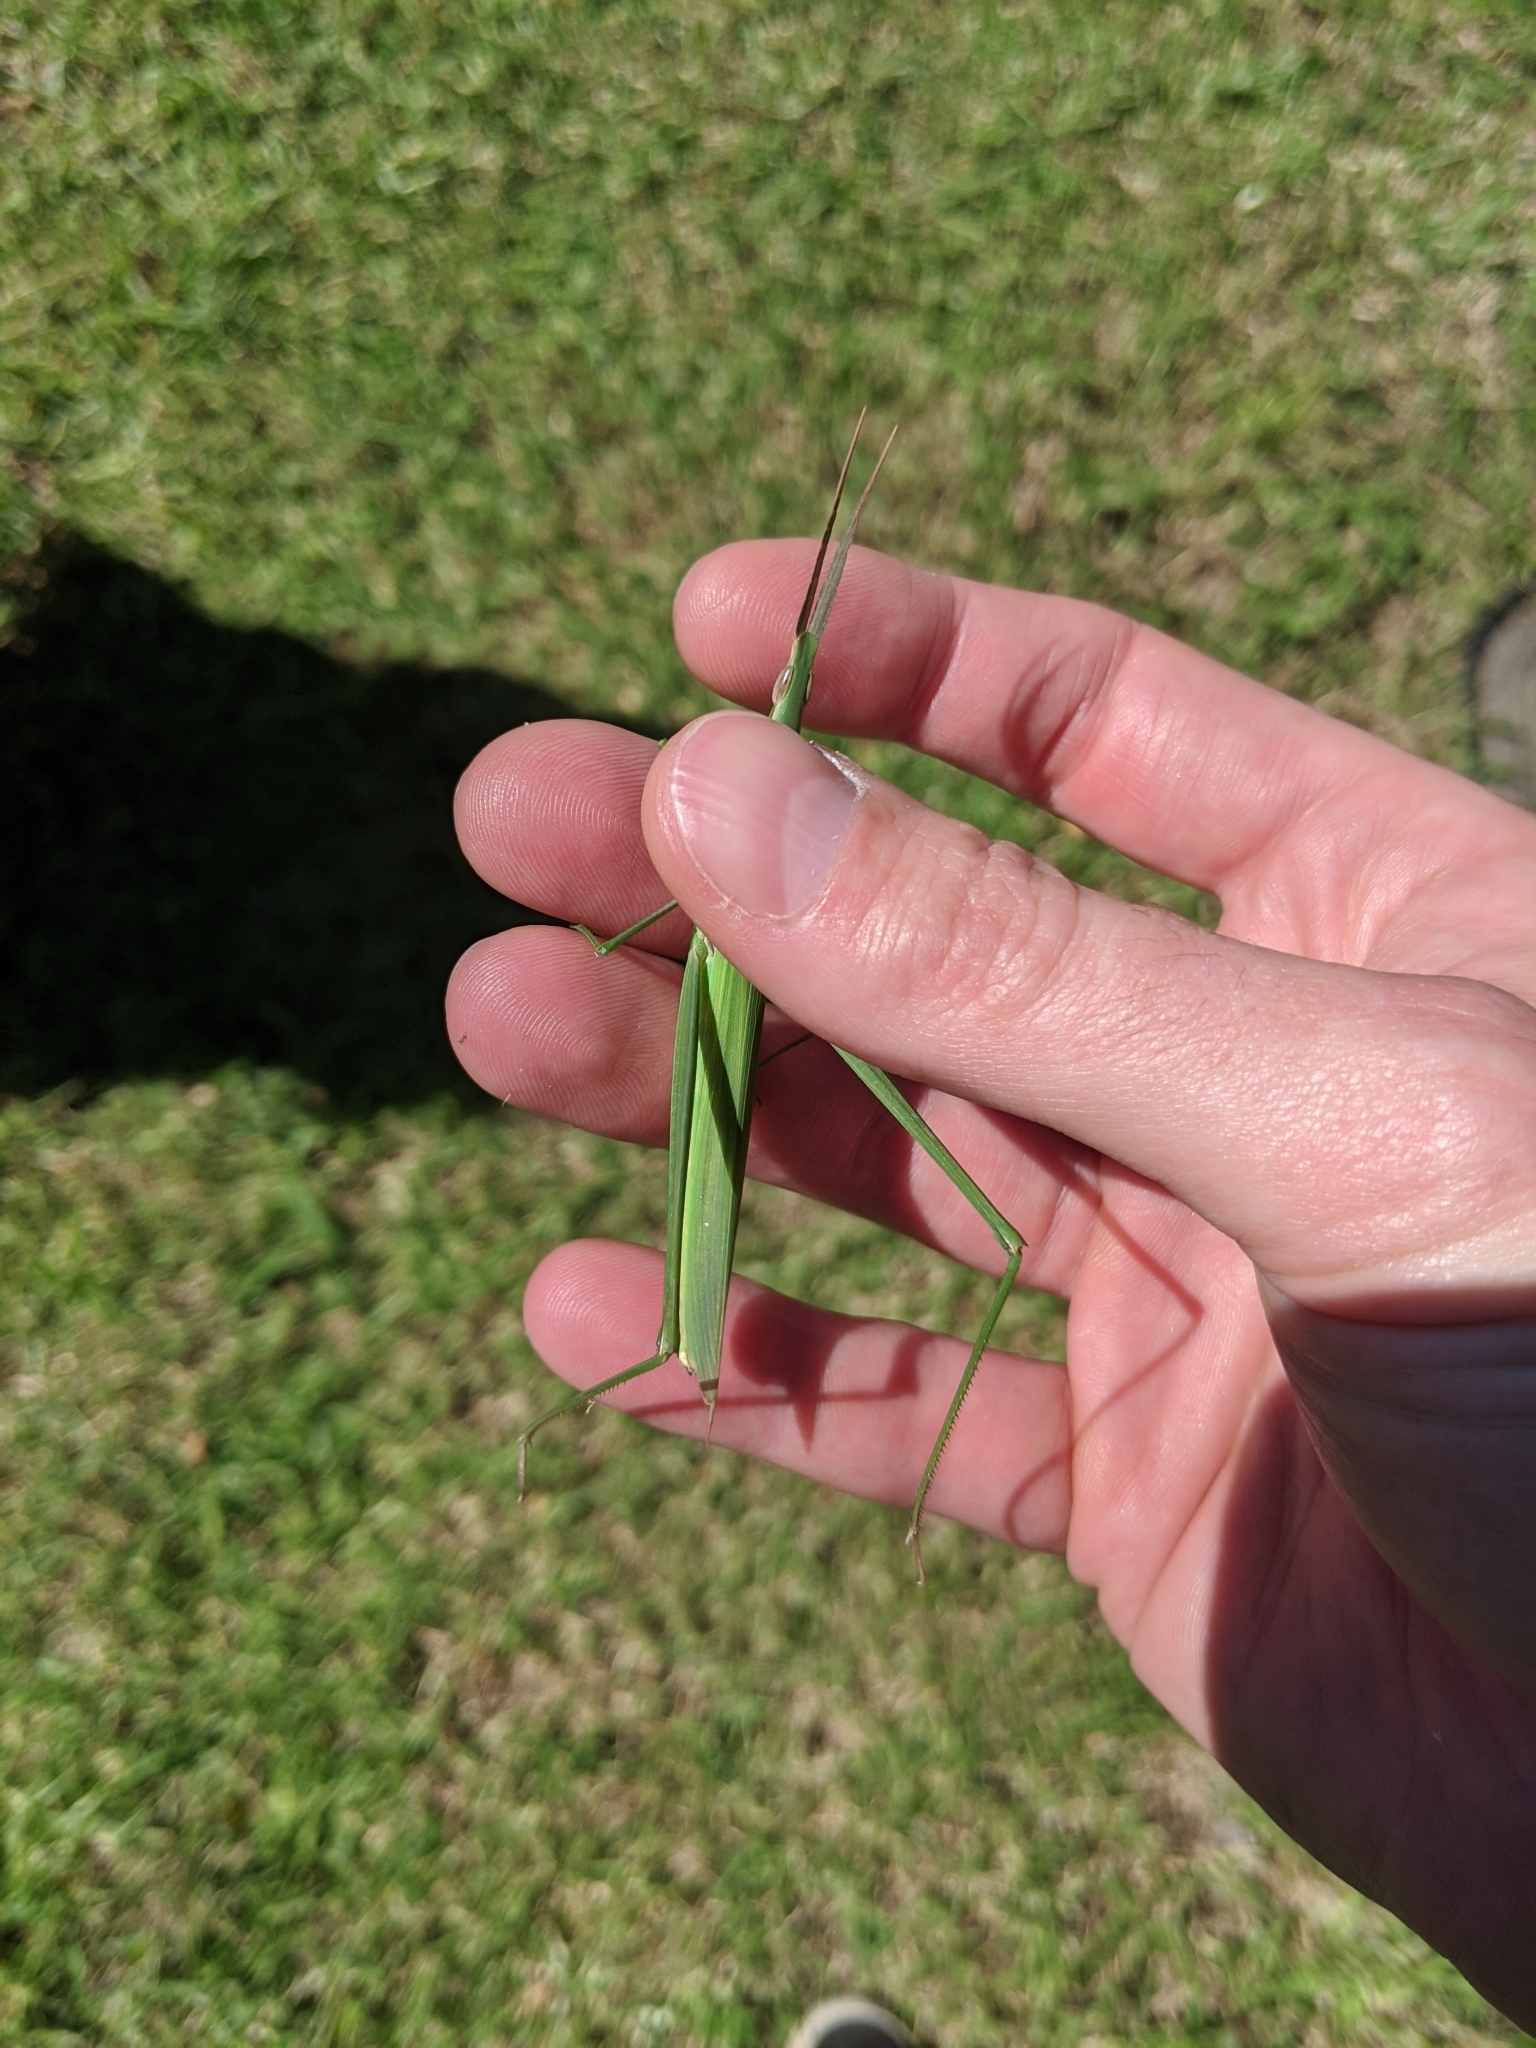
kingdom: Animalia
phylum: Arthropoda
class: Insecta
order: Orthoptera
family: Acrididae
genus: Acrida
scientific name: Acrida conica
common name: Giant green slantface
